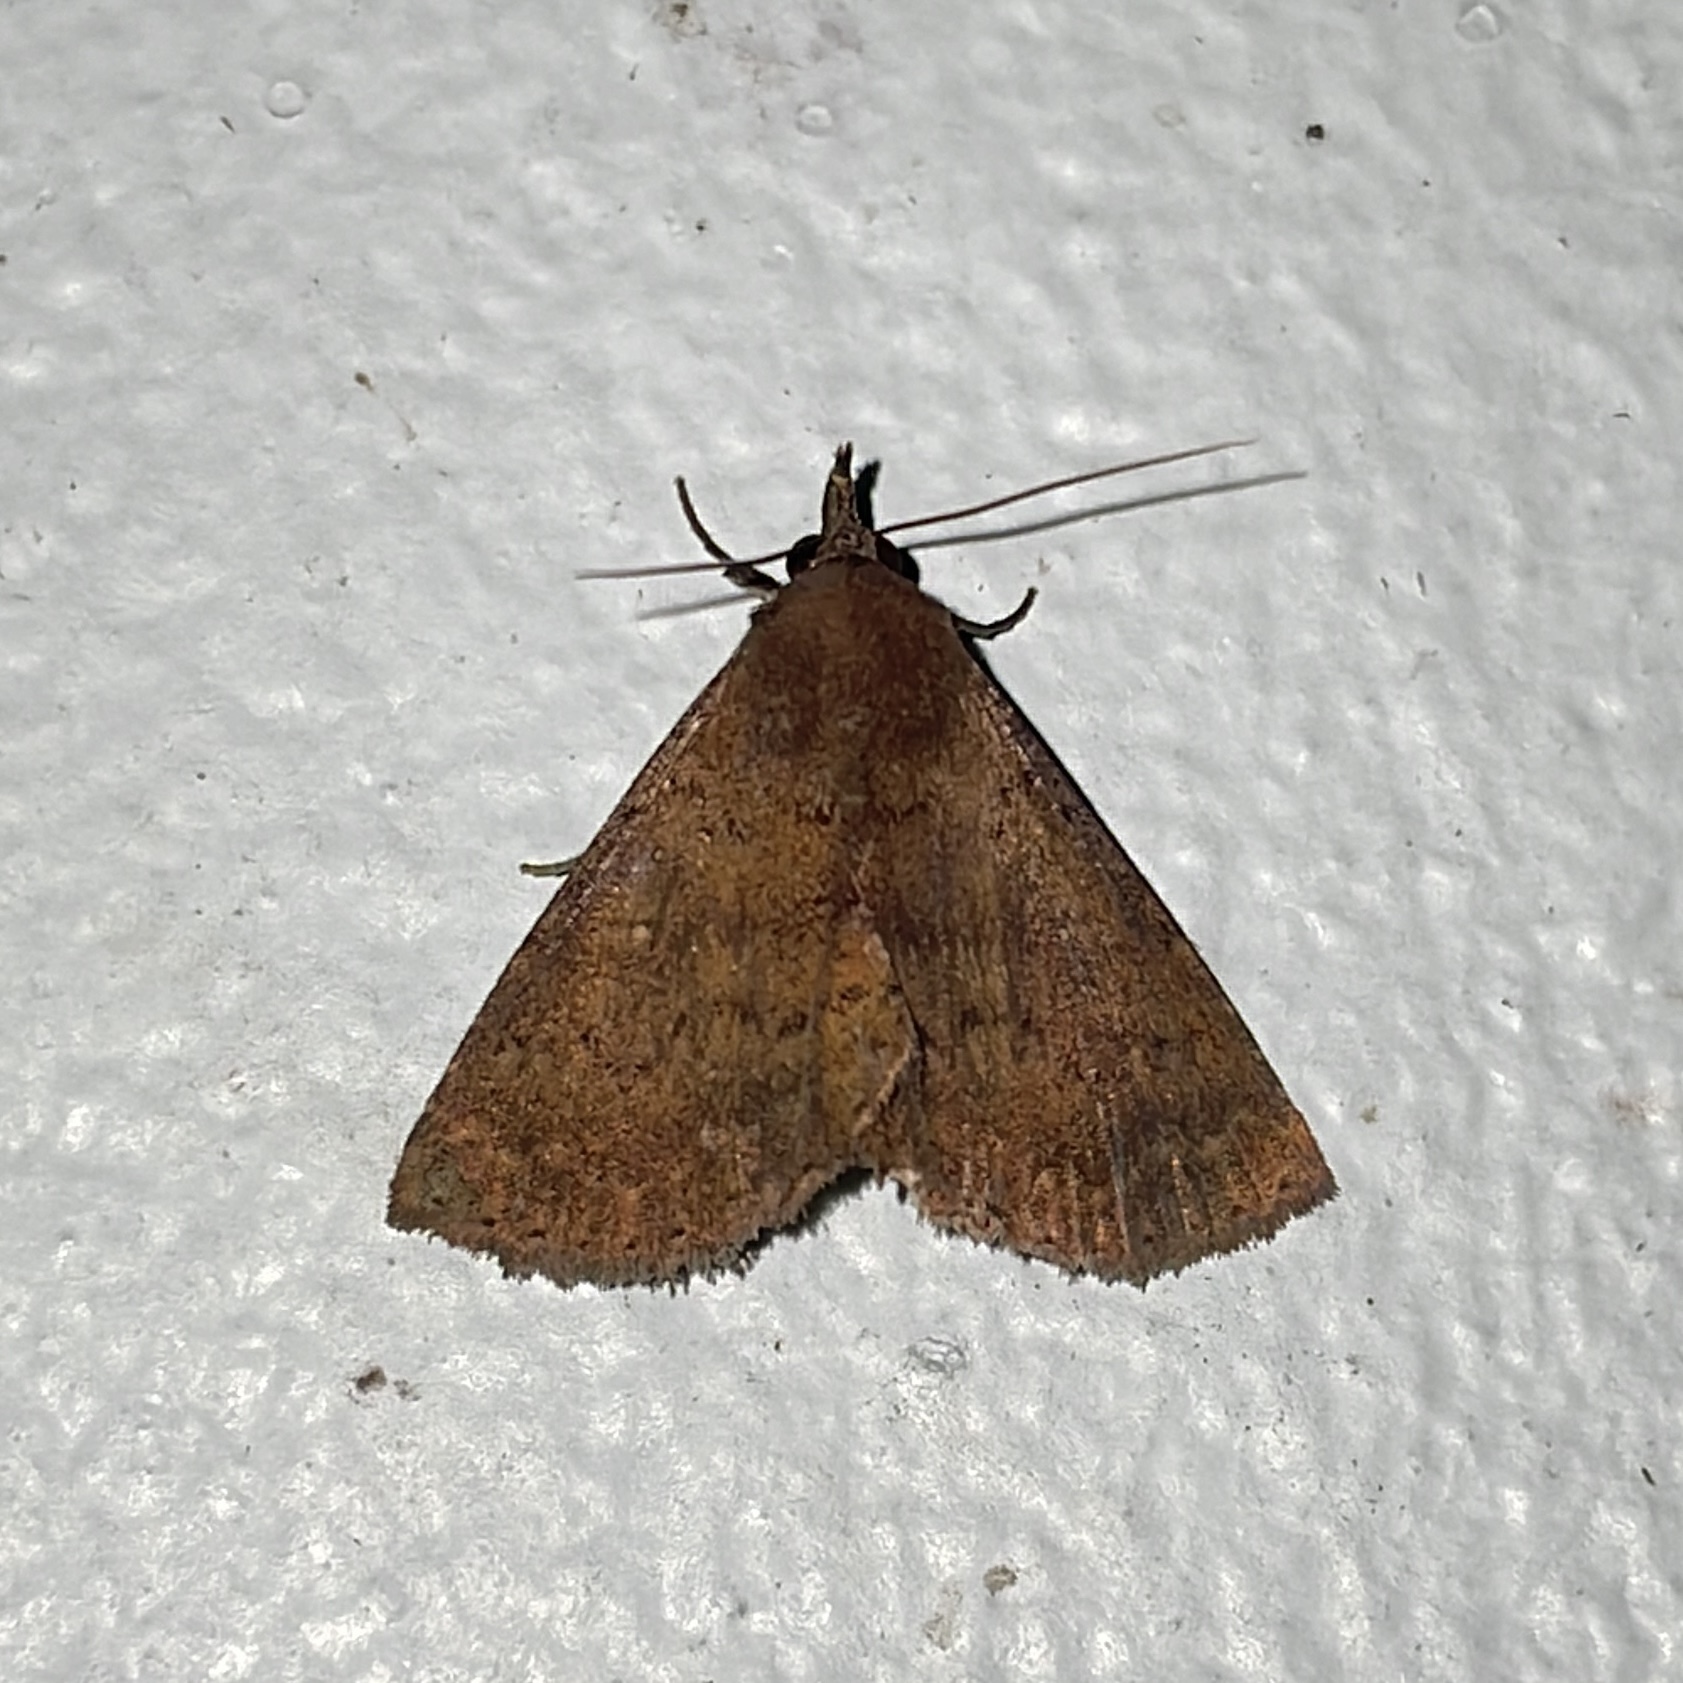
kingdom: Animalia
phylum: Arthropoda
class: Insecta
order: Lepidoptera
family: Erebidae
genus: Bleptina
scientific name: Bleptina dejecta
